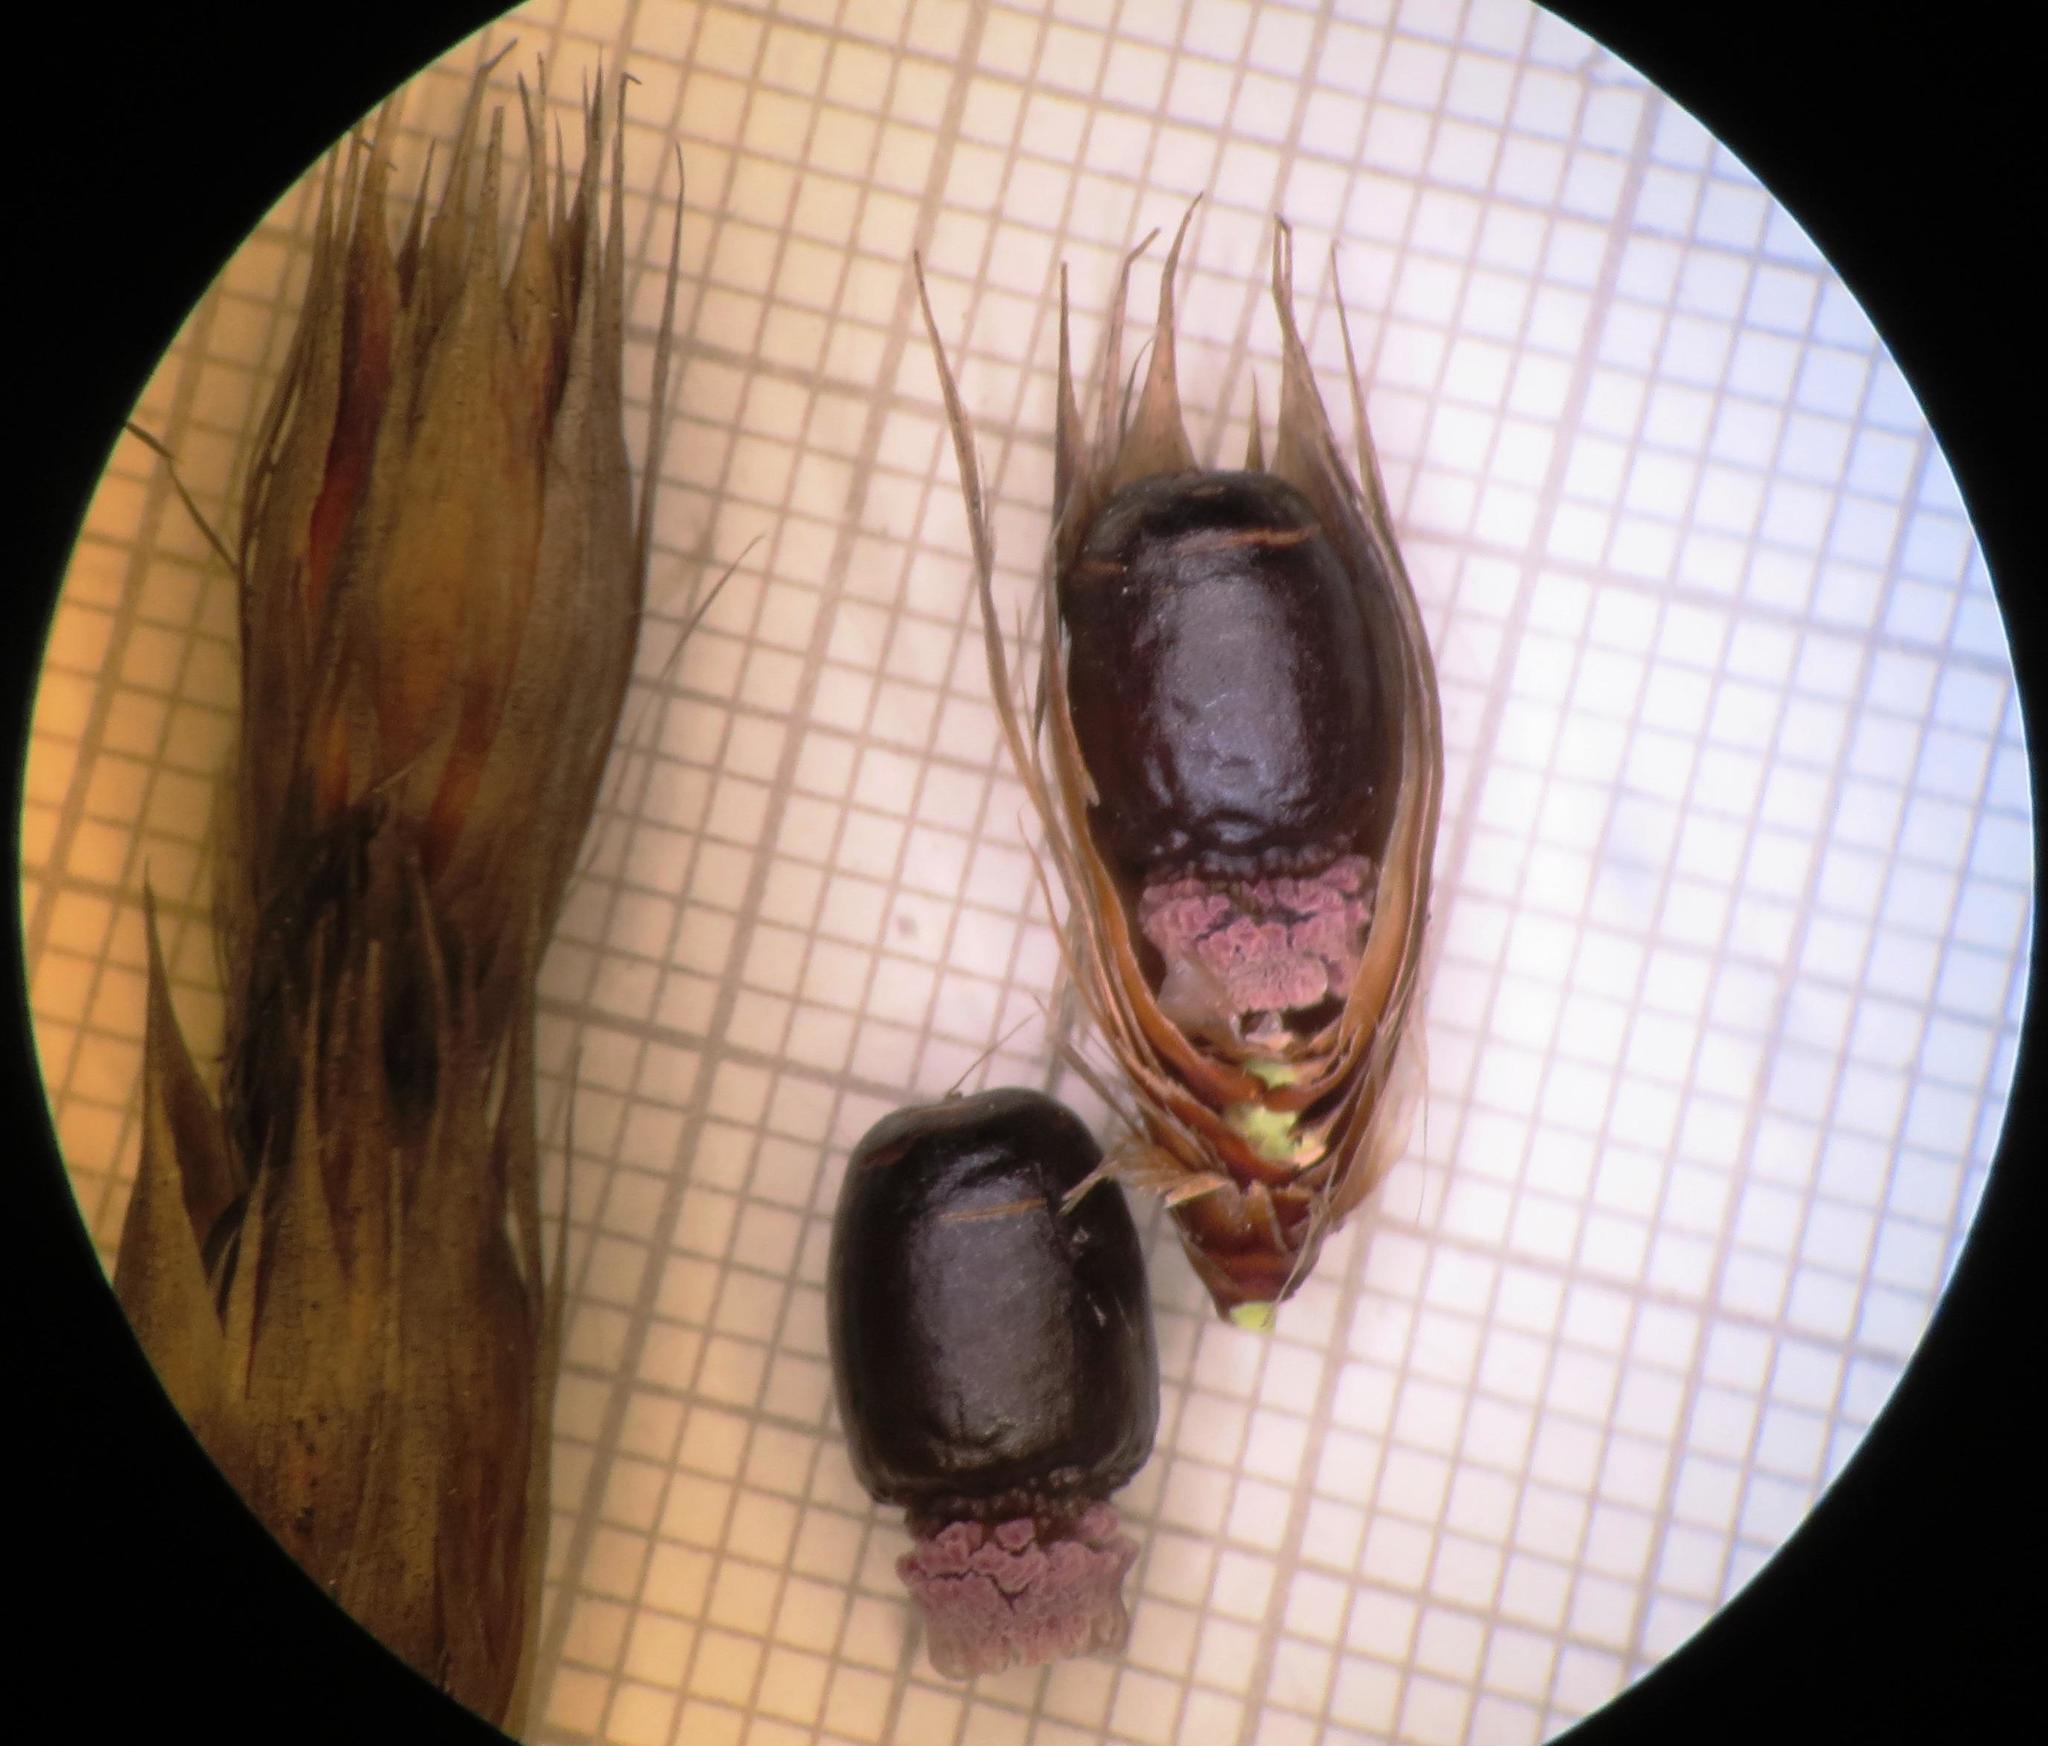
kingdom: Plantae
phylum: Tracheophyta
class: Liliopsida
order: Poales
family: Restionaceae
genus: Hypodiscus
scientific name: Hypodiscus argenteus
